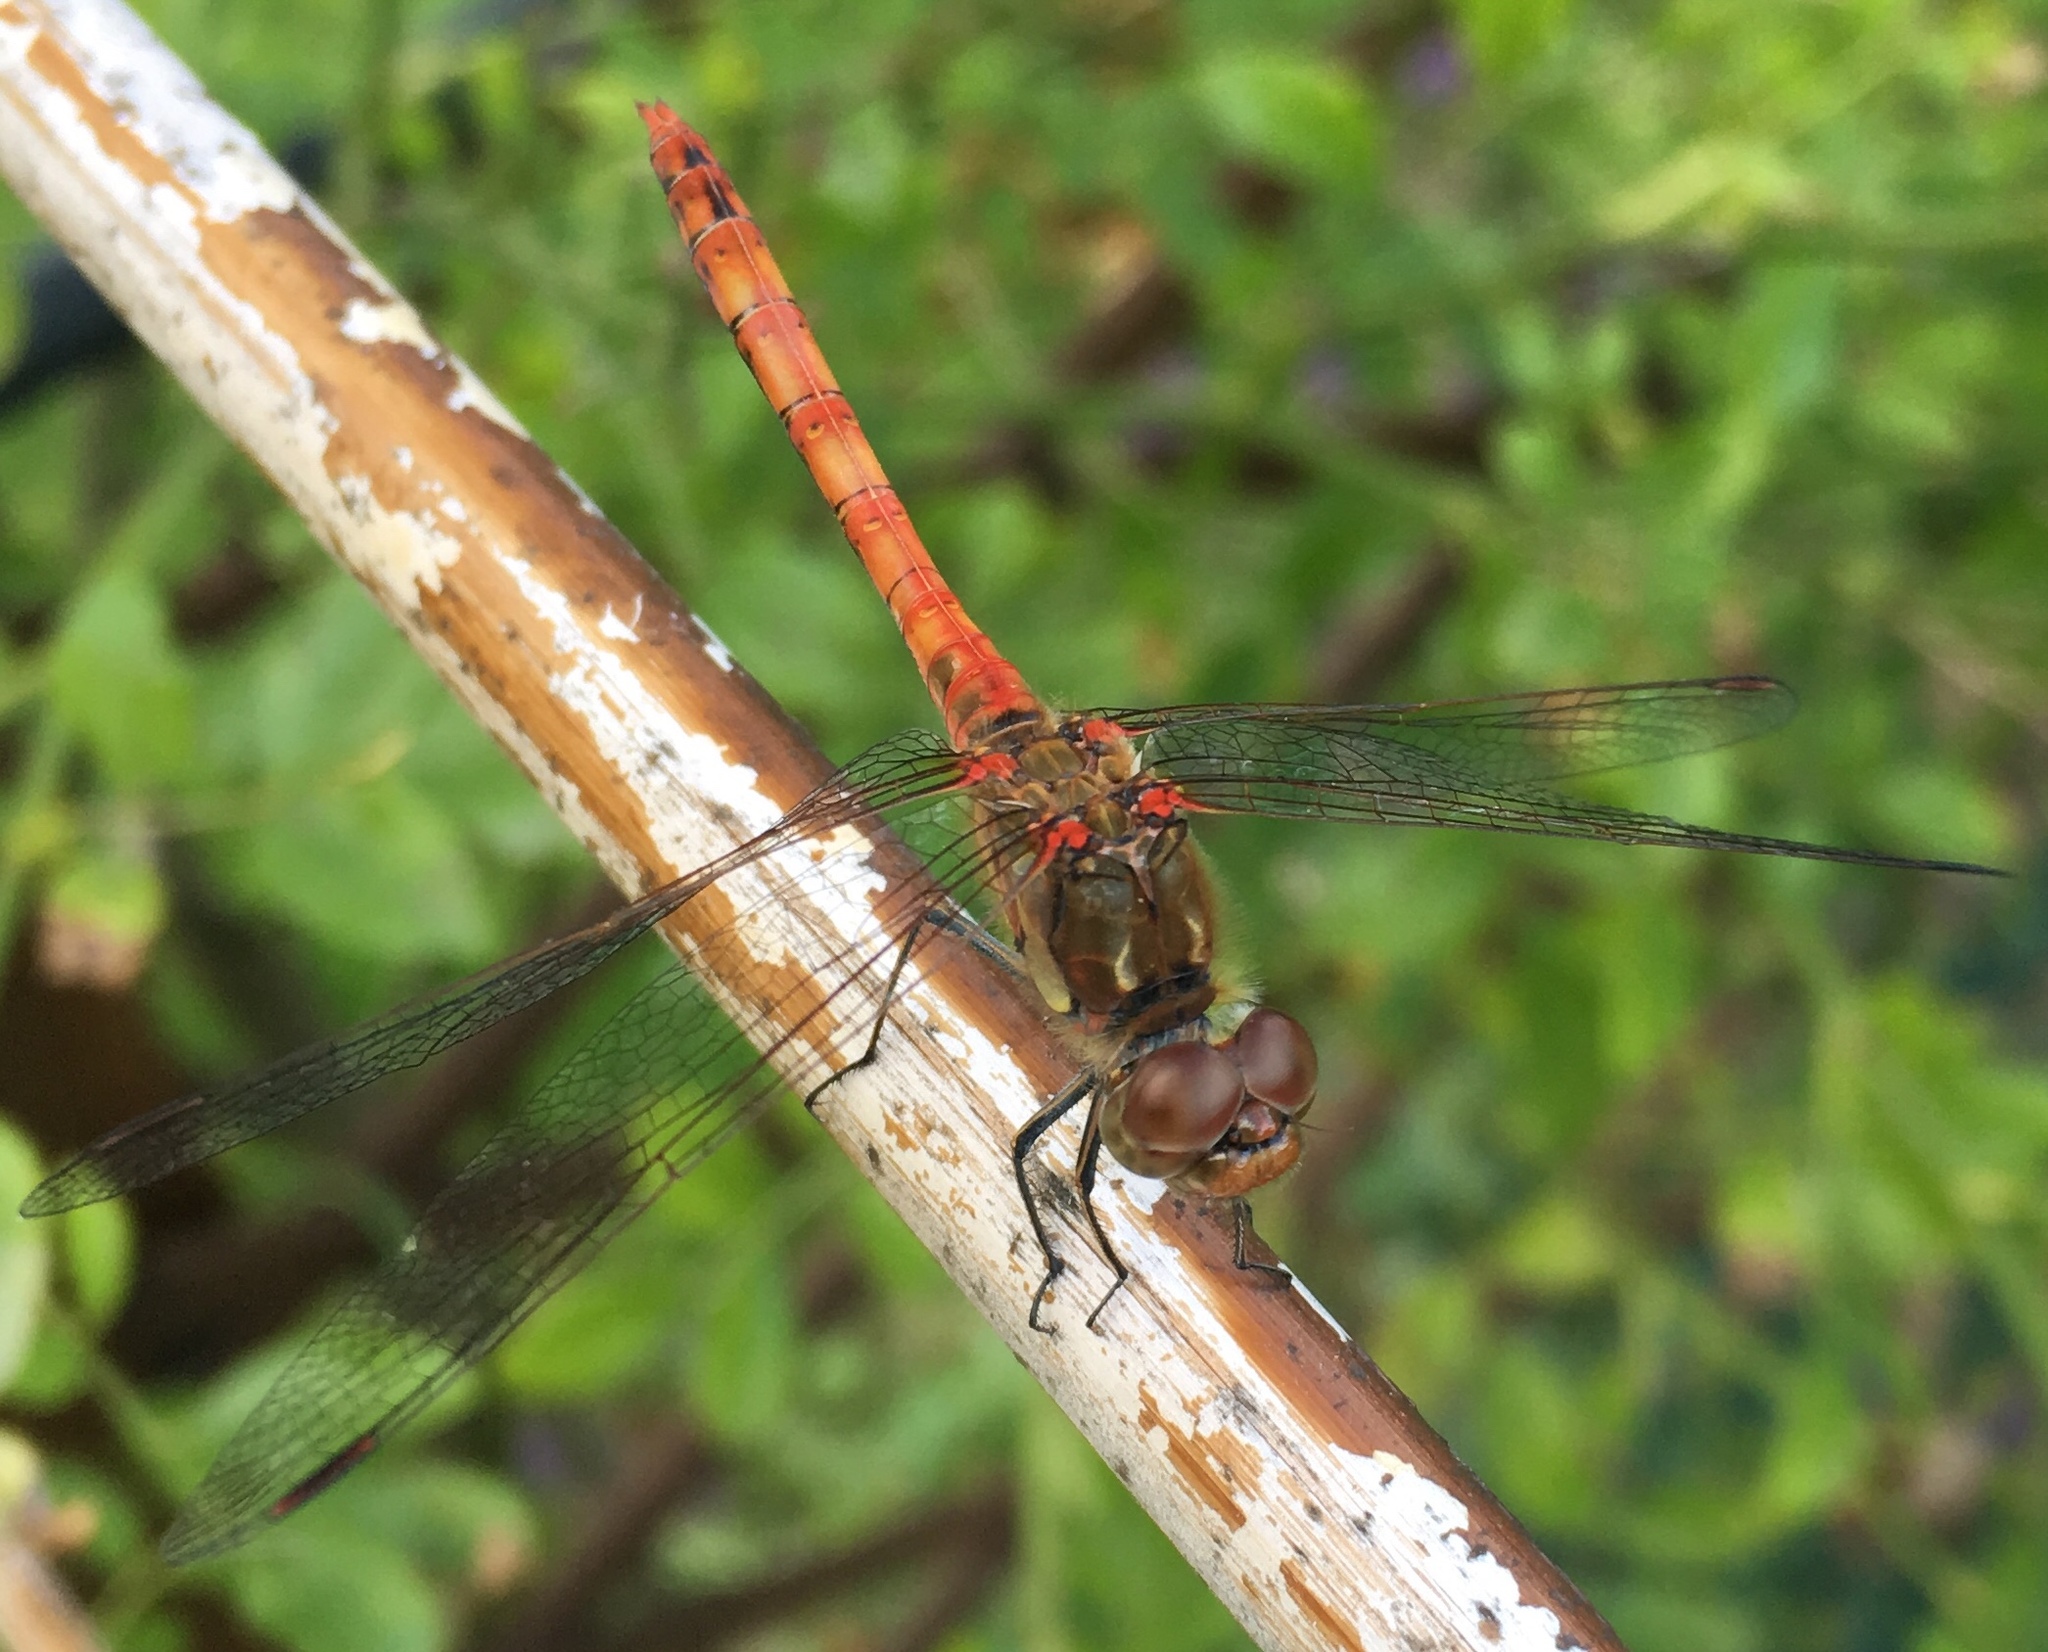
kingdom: Animalia
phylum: Arthropoda
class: Insecta
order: Odonata
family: Libellulidae
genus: Sympetrum
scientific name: Sympetrum striolatum
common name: Common darter
